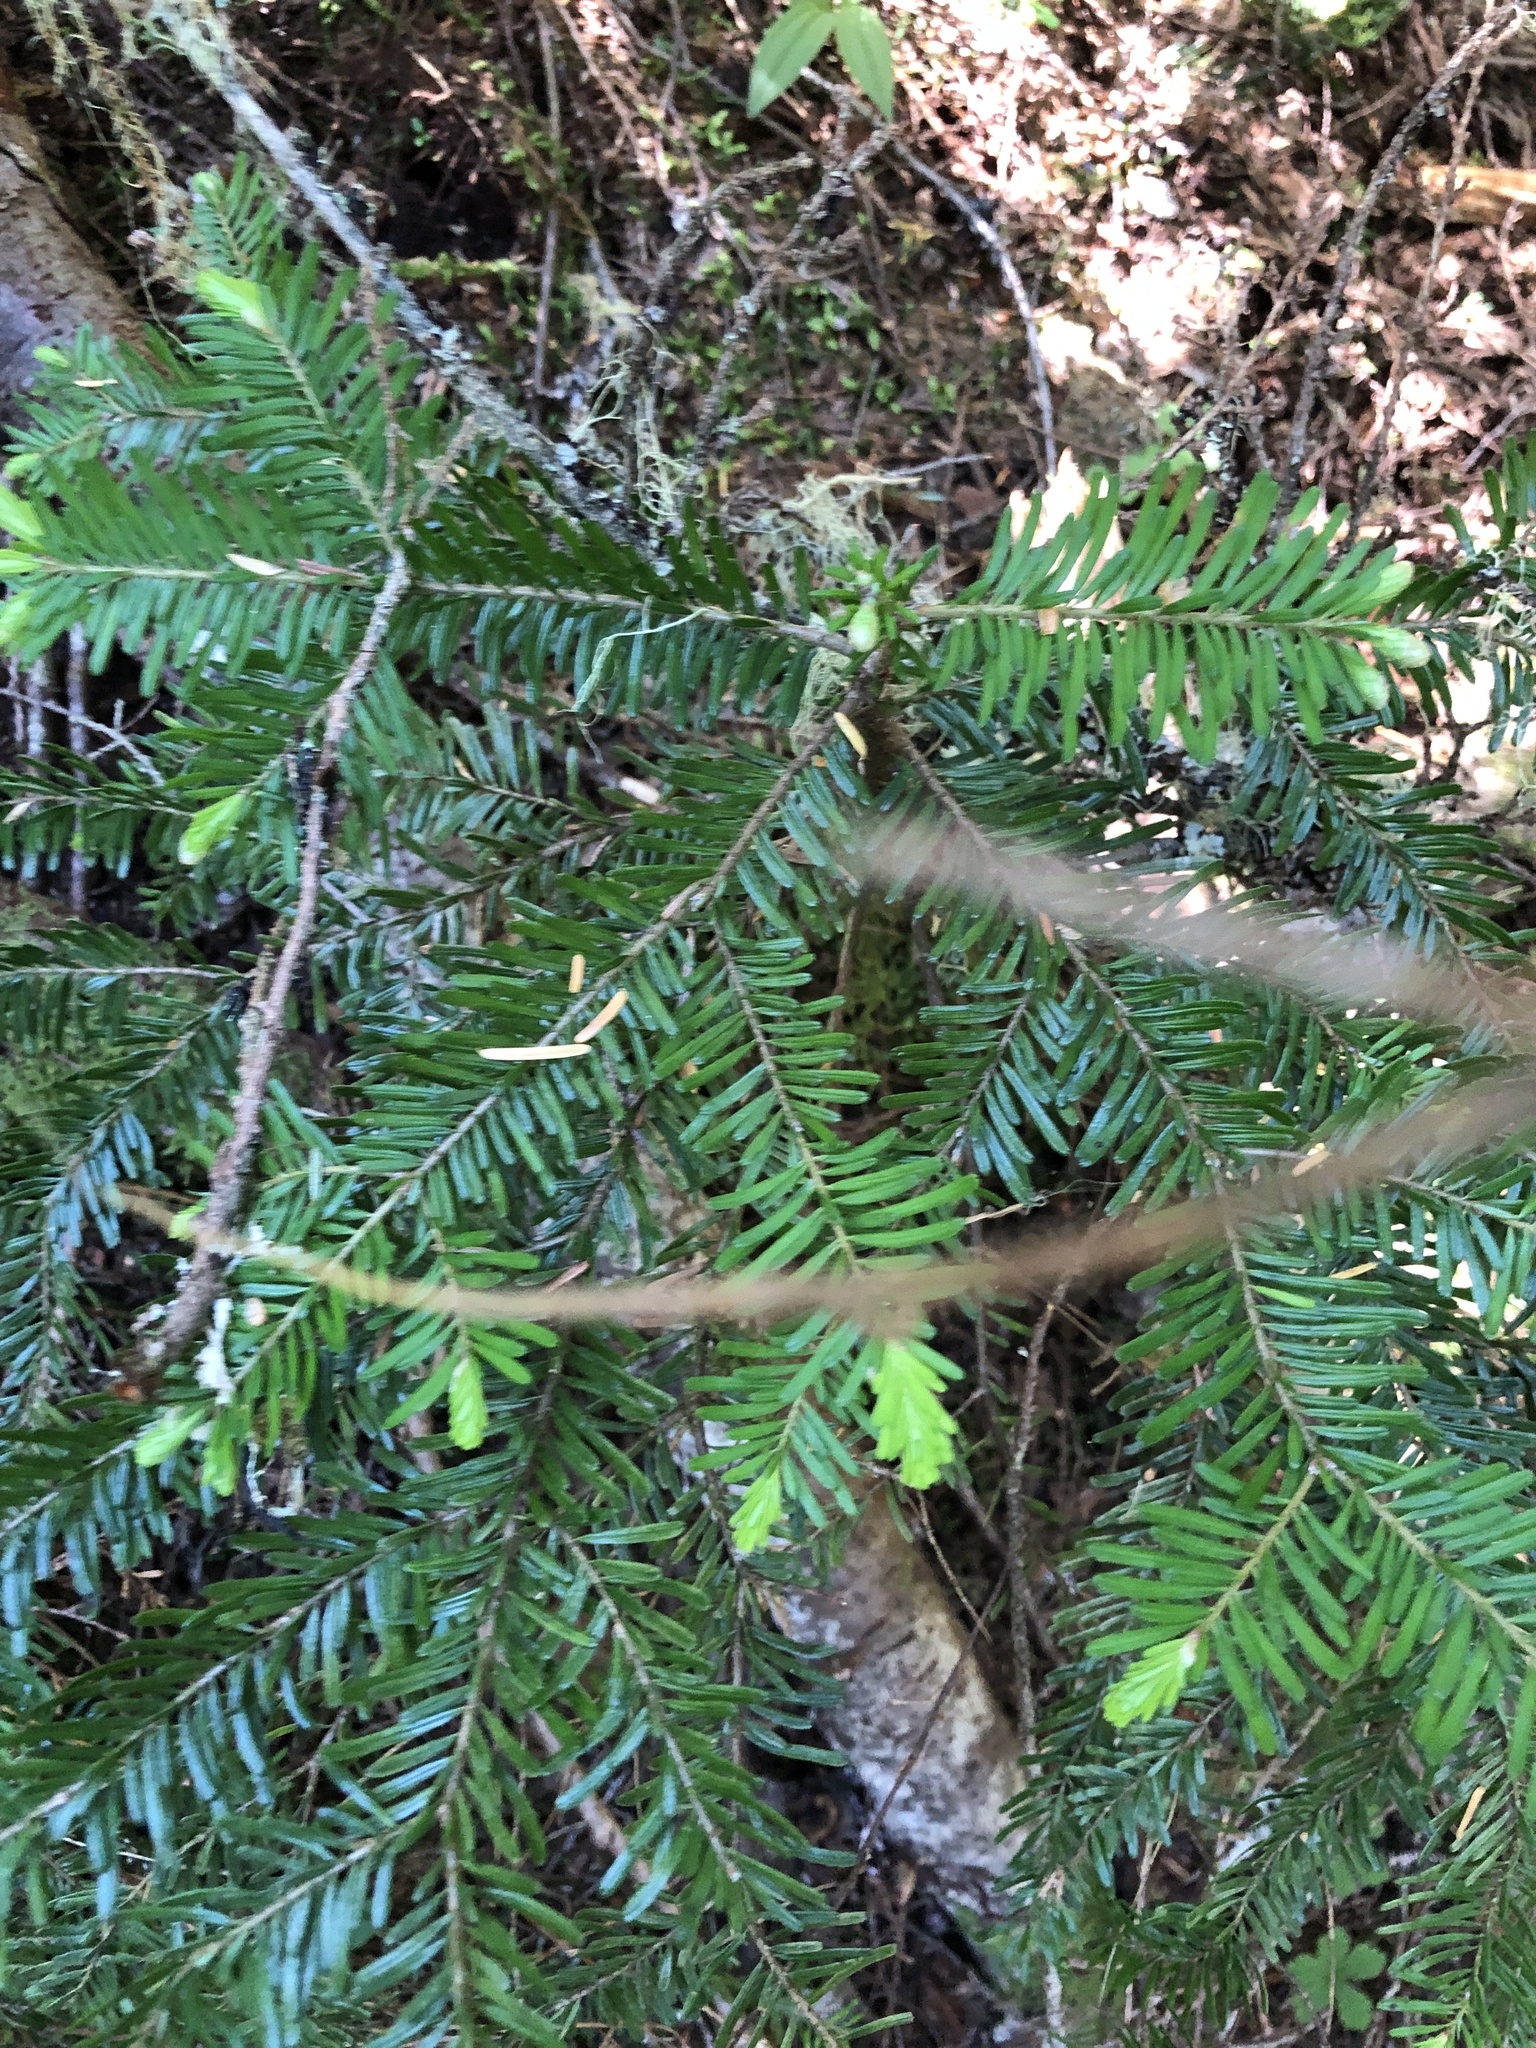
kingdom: Plantae
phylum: Tracheophyta
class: Pinopsida
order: Pinales
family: Pinaceae
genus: Abies
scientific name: Abies amabilis
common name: Pacific silver fir
